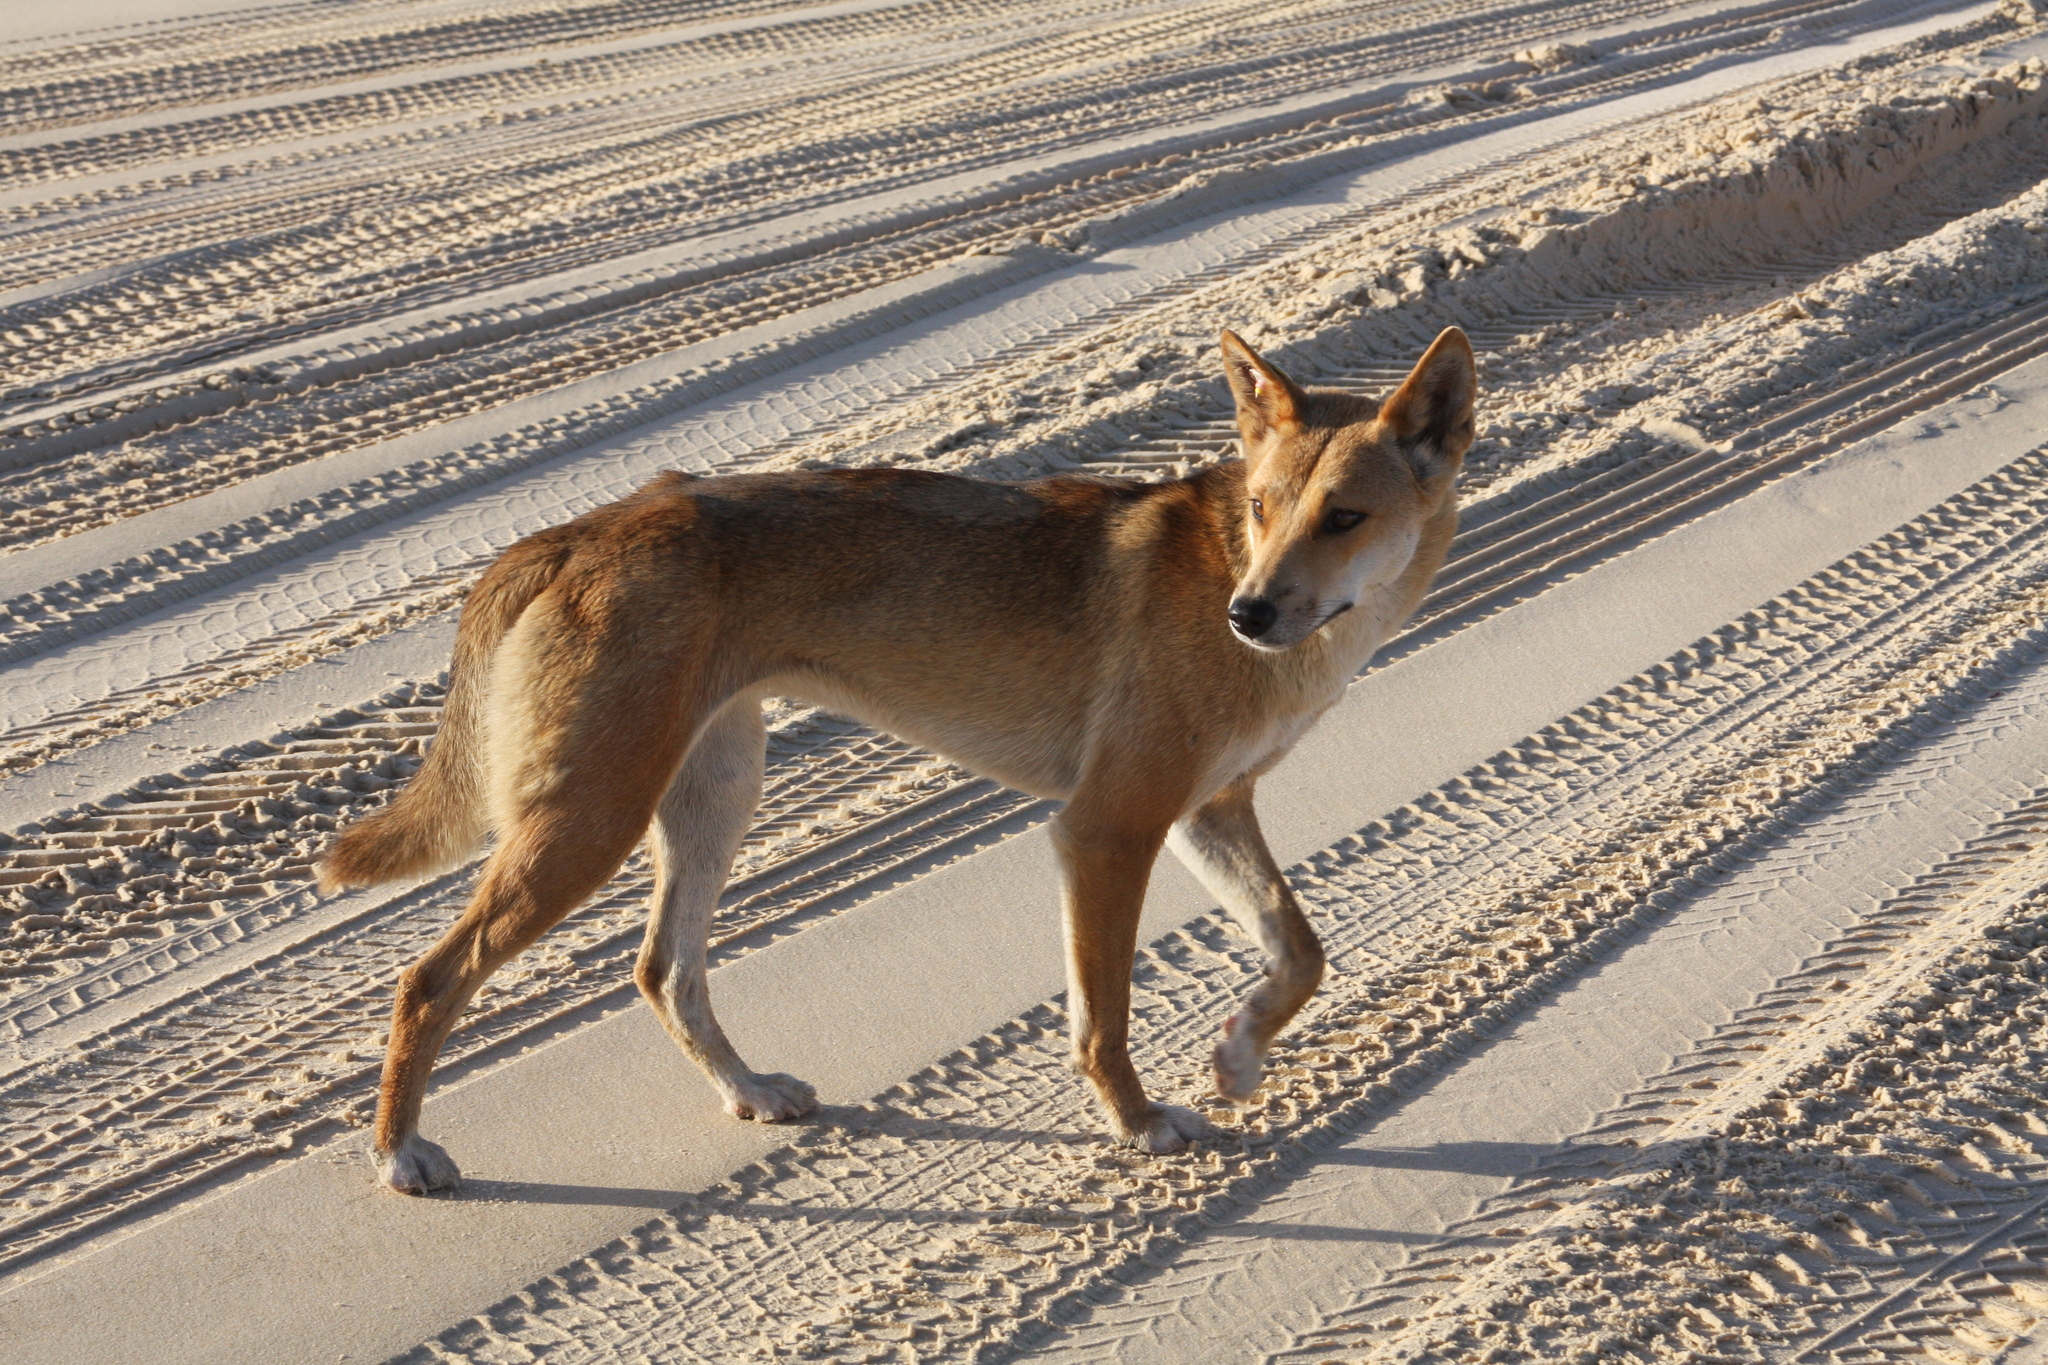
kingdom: Animalia
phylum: Chordata
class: Mammalia
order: Carnivora
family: Canidae
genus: Canis
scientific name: Canis lupus
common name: Gray wolf
